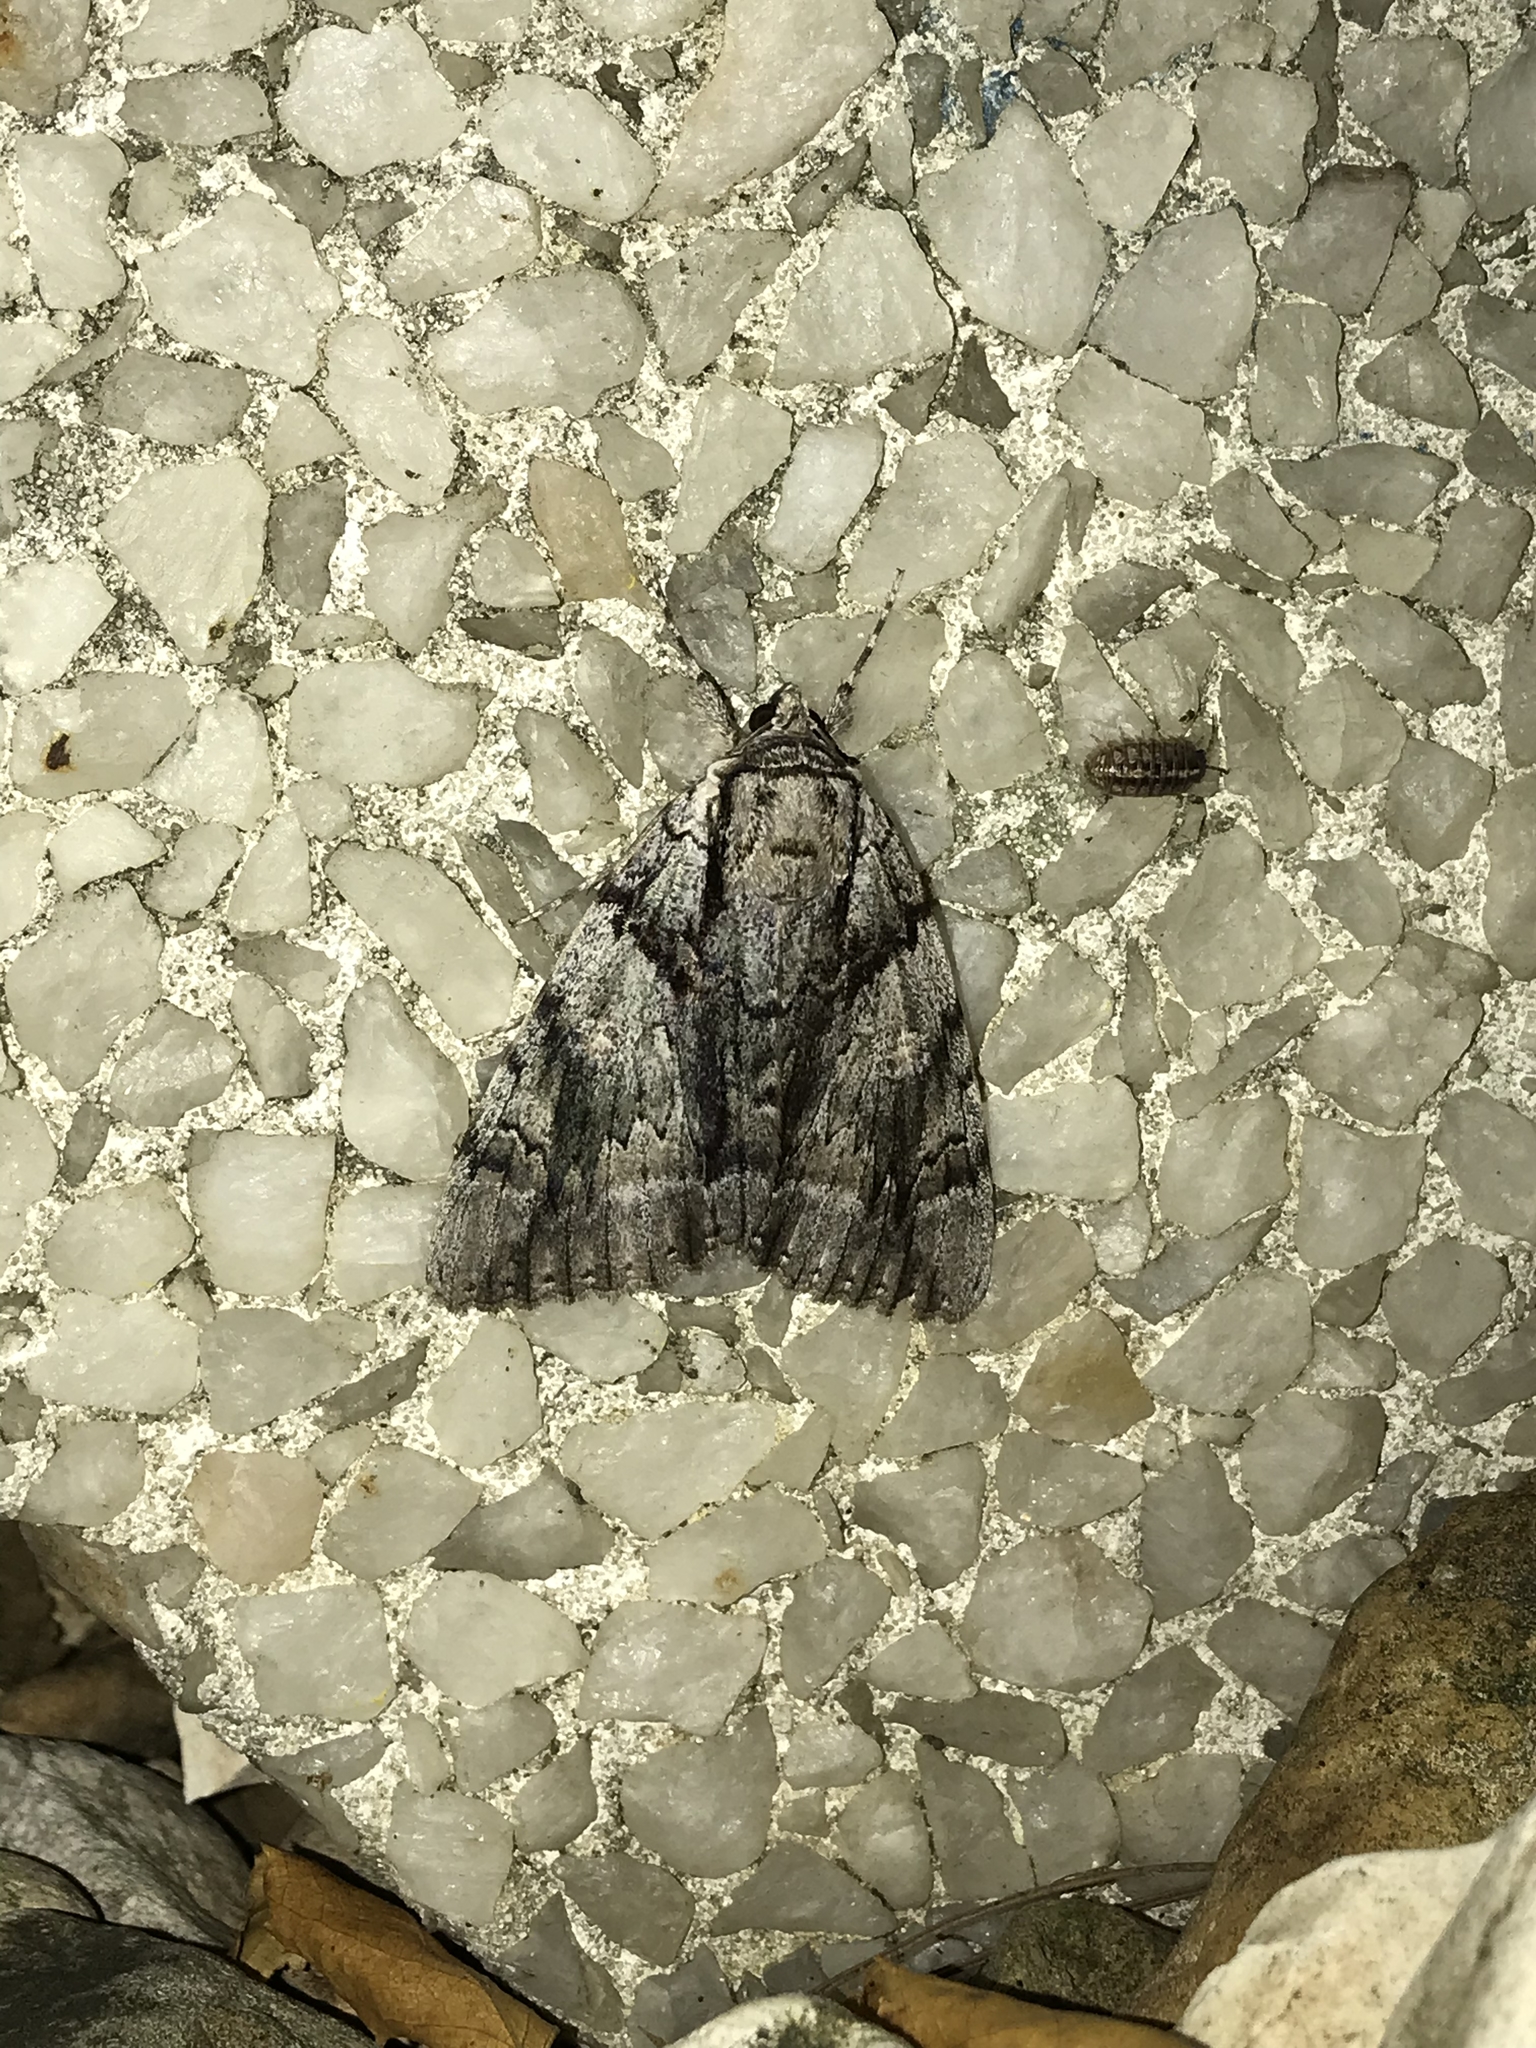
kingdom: Animalia
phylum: Arthropoda
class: Insecta
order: Lepidoptera
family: Erebidae
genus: Catocala
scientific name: Catocala vidua
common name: The widow
